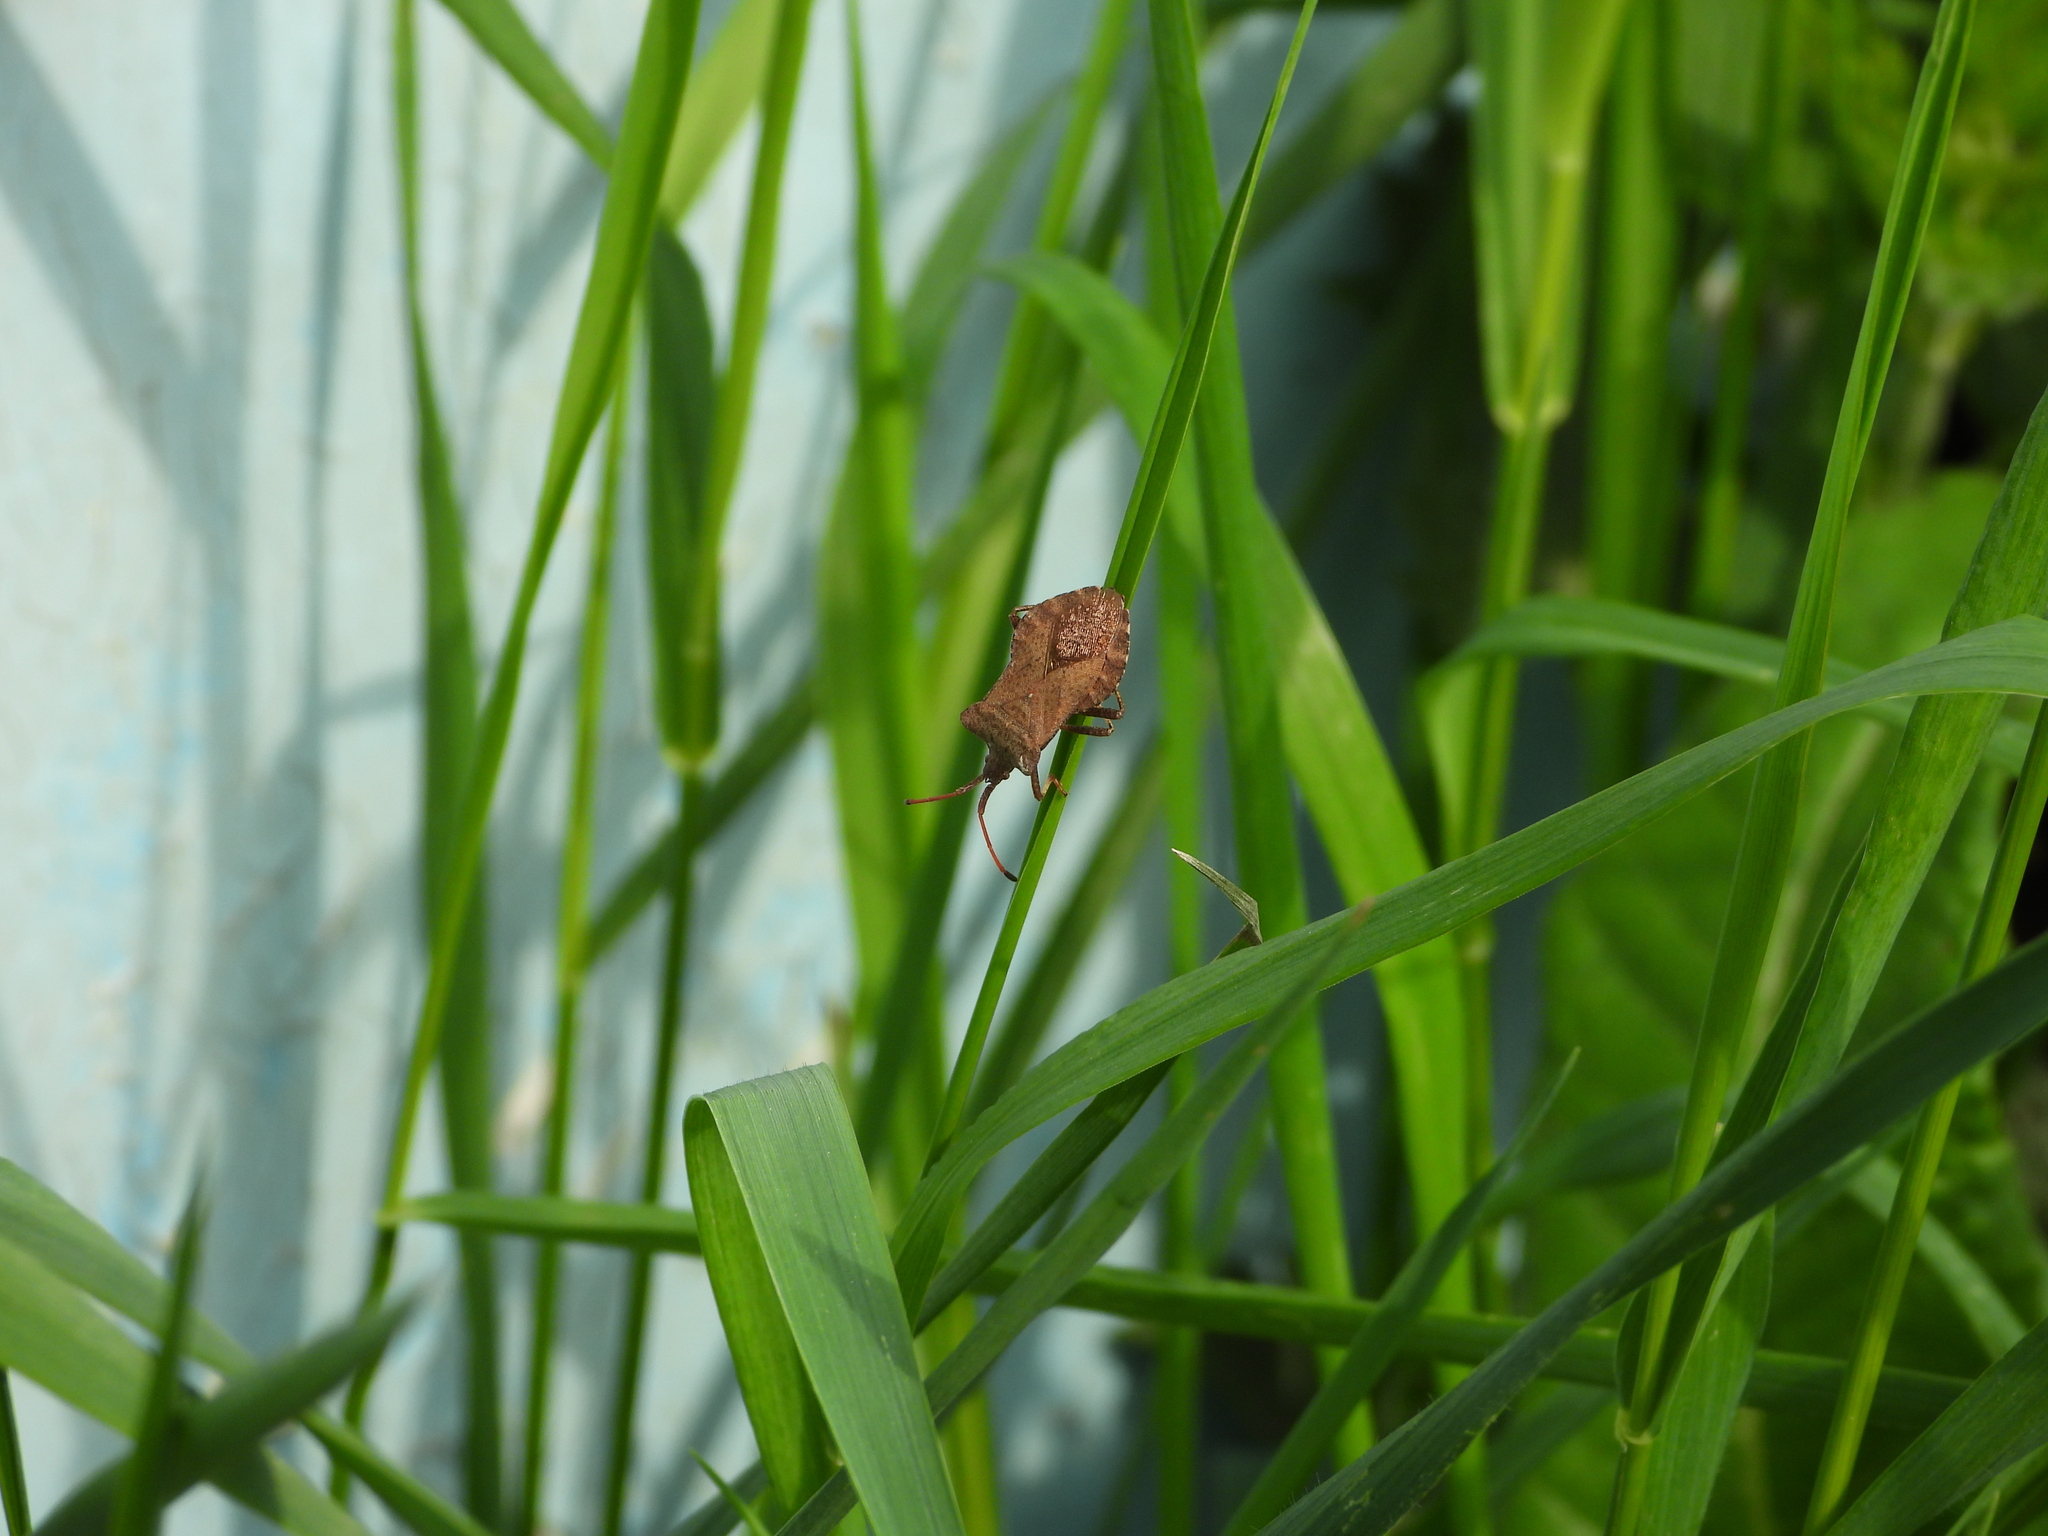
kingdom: Animalia
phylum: Arthropoda
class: Insecta
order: Hemiptera
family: Coreidae
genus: Coreus
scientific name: Coreus marginatus
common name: Dock bug
